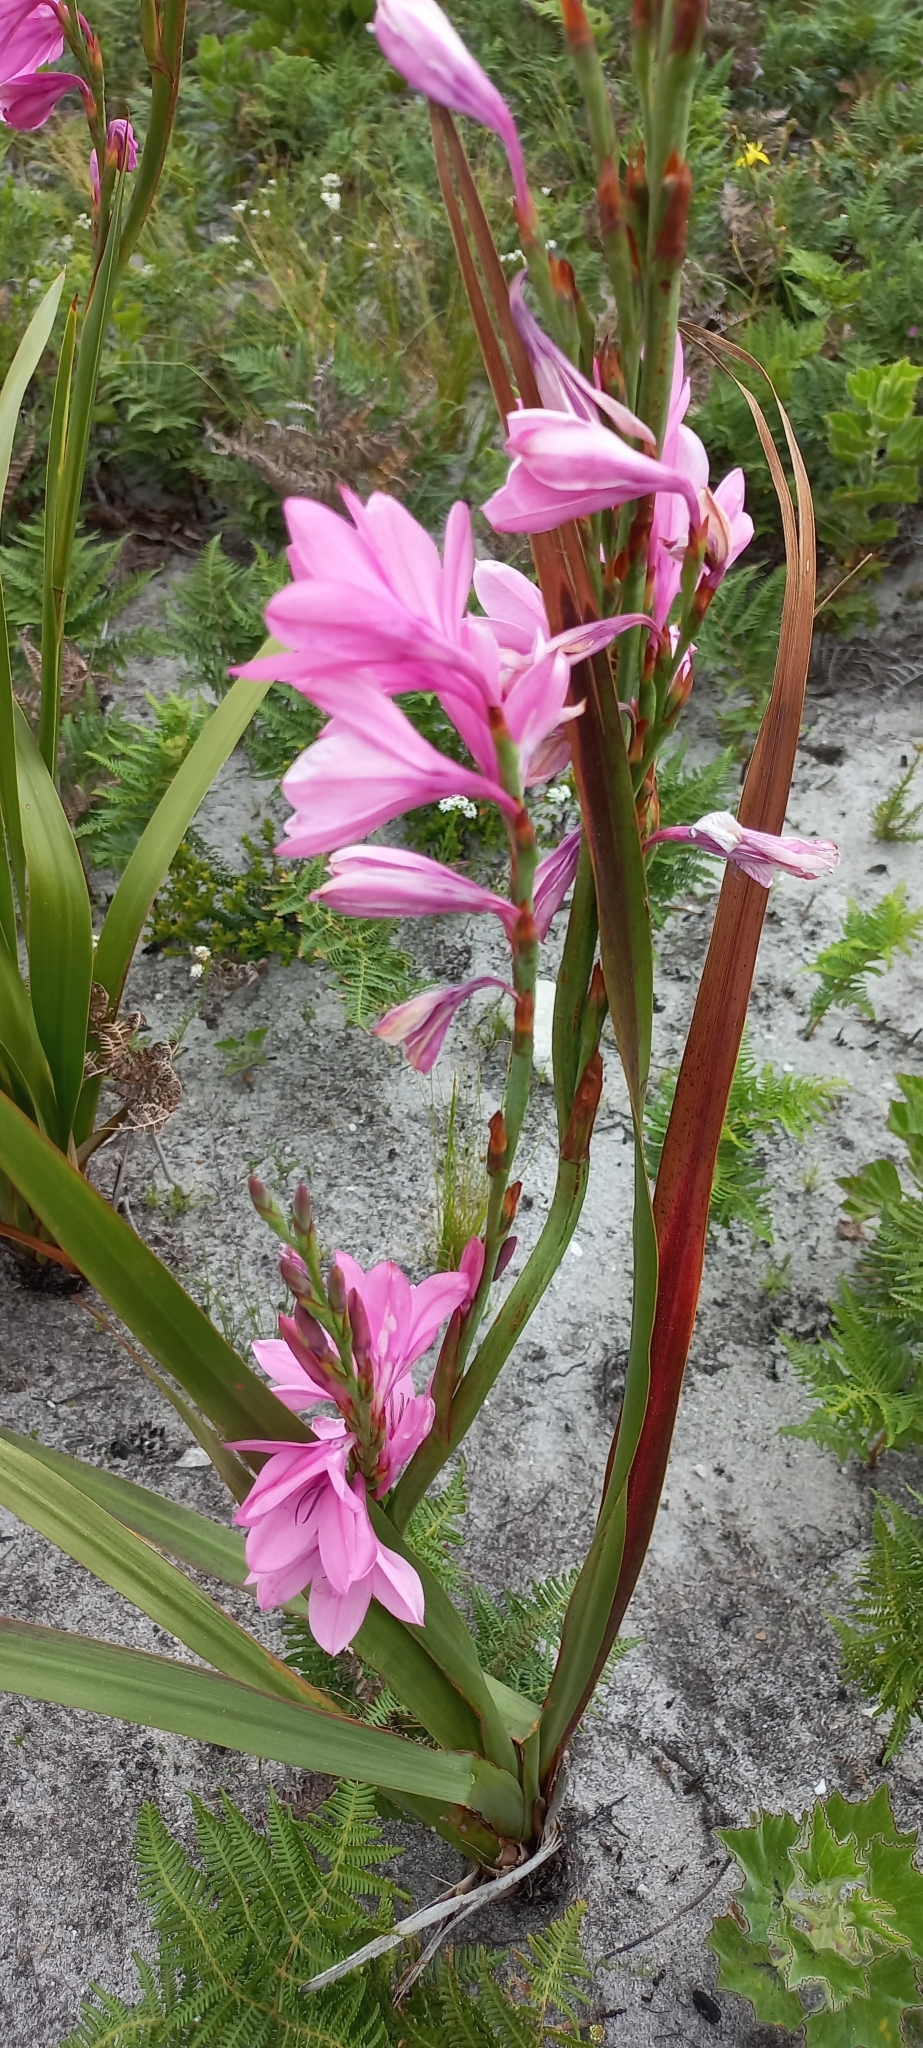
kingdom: Plantae
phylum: Tracheophyta
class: Liliopsida
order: Asparagales
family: Iridaceae
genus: Watsonia
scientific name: Watsonia borbonica
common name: Bugle-lily
